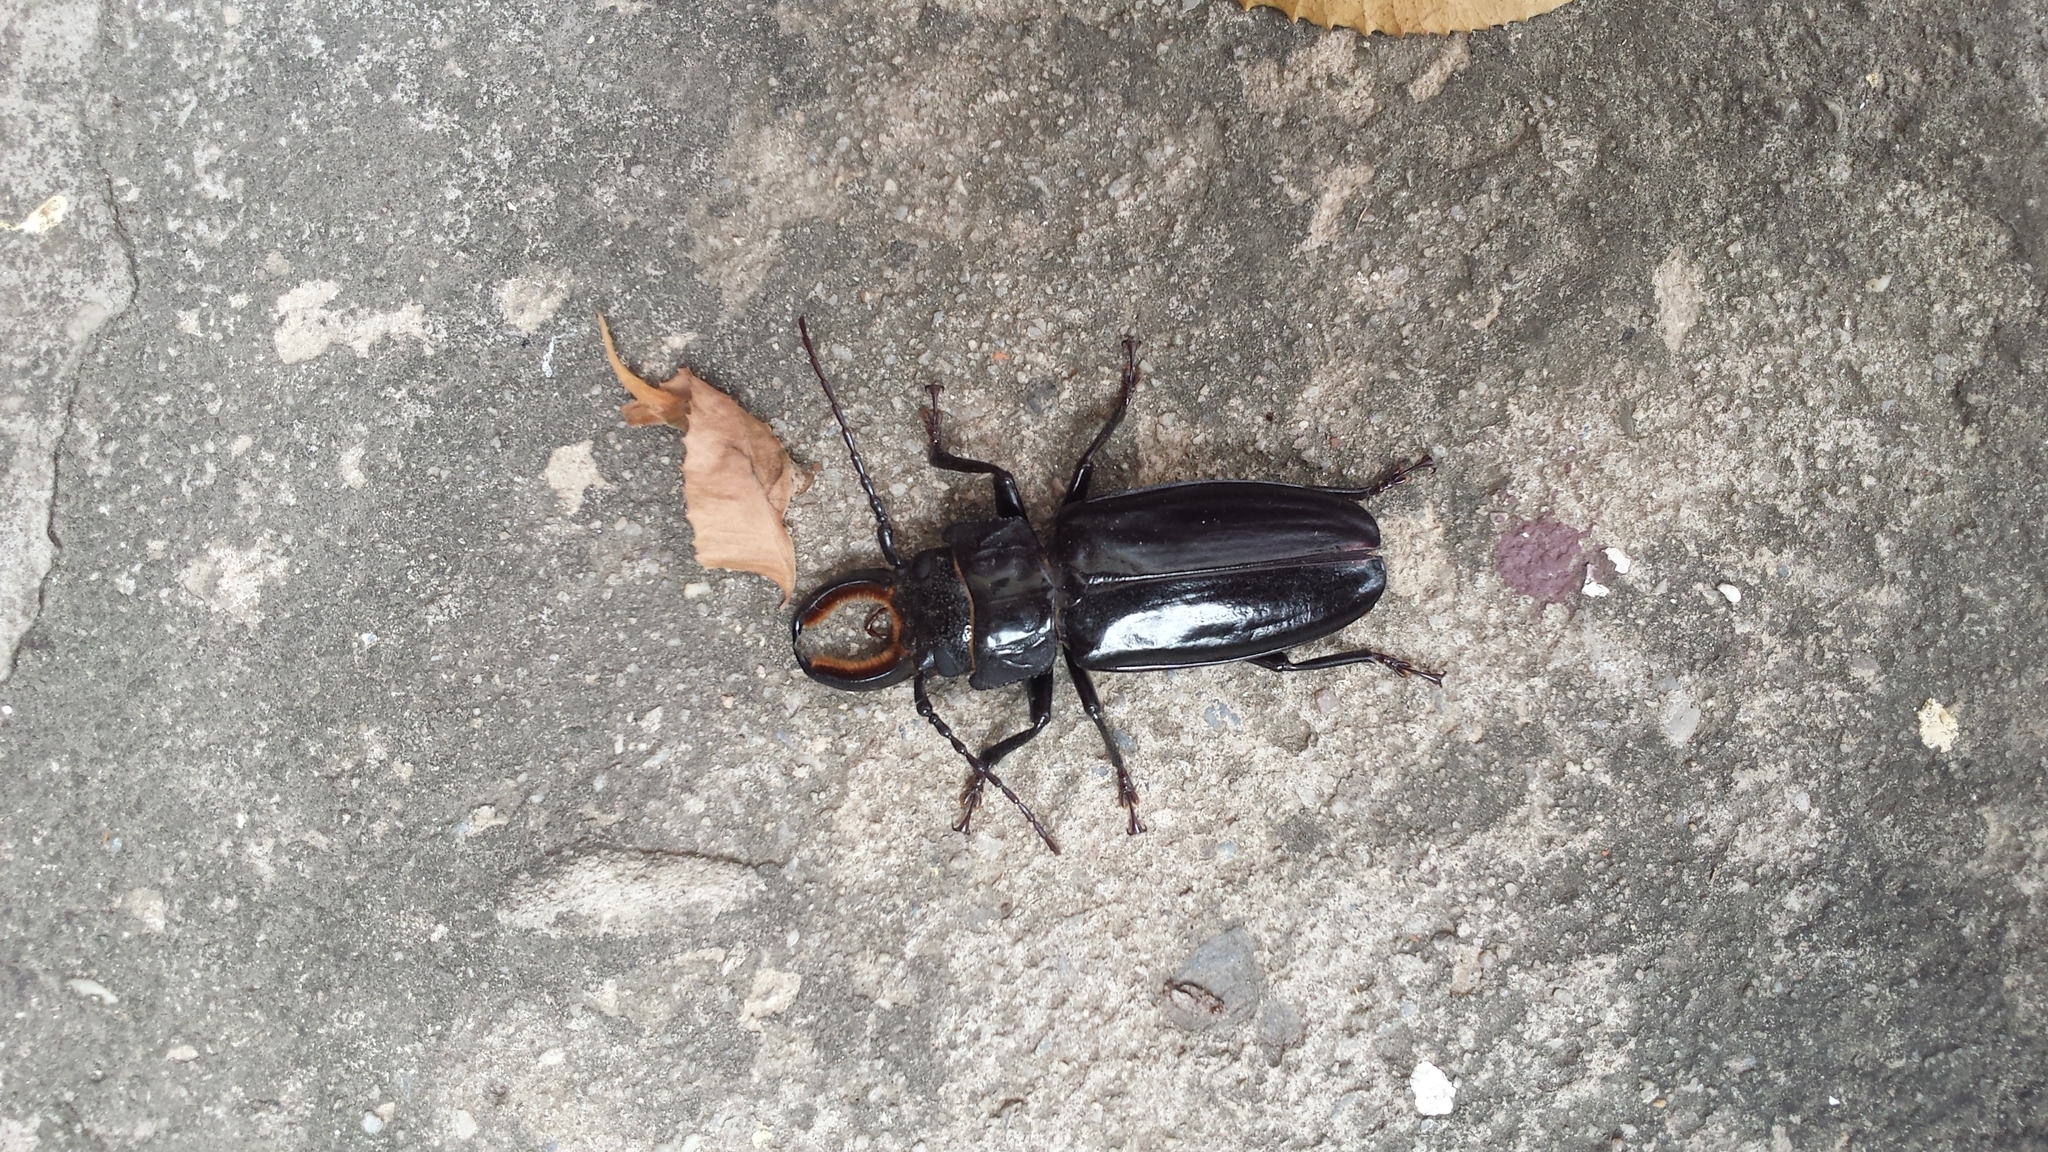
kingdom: Animalia
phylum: Arthropoda
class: Insecta
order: Coleoptera
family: Cerambycidae
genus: Mallodon
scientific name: Mallodon chevrolatii
